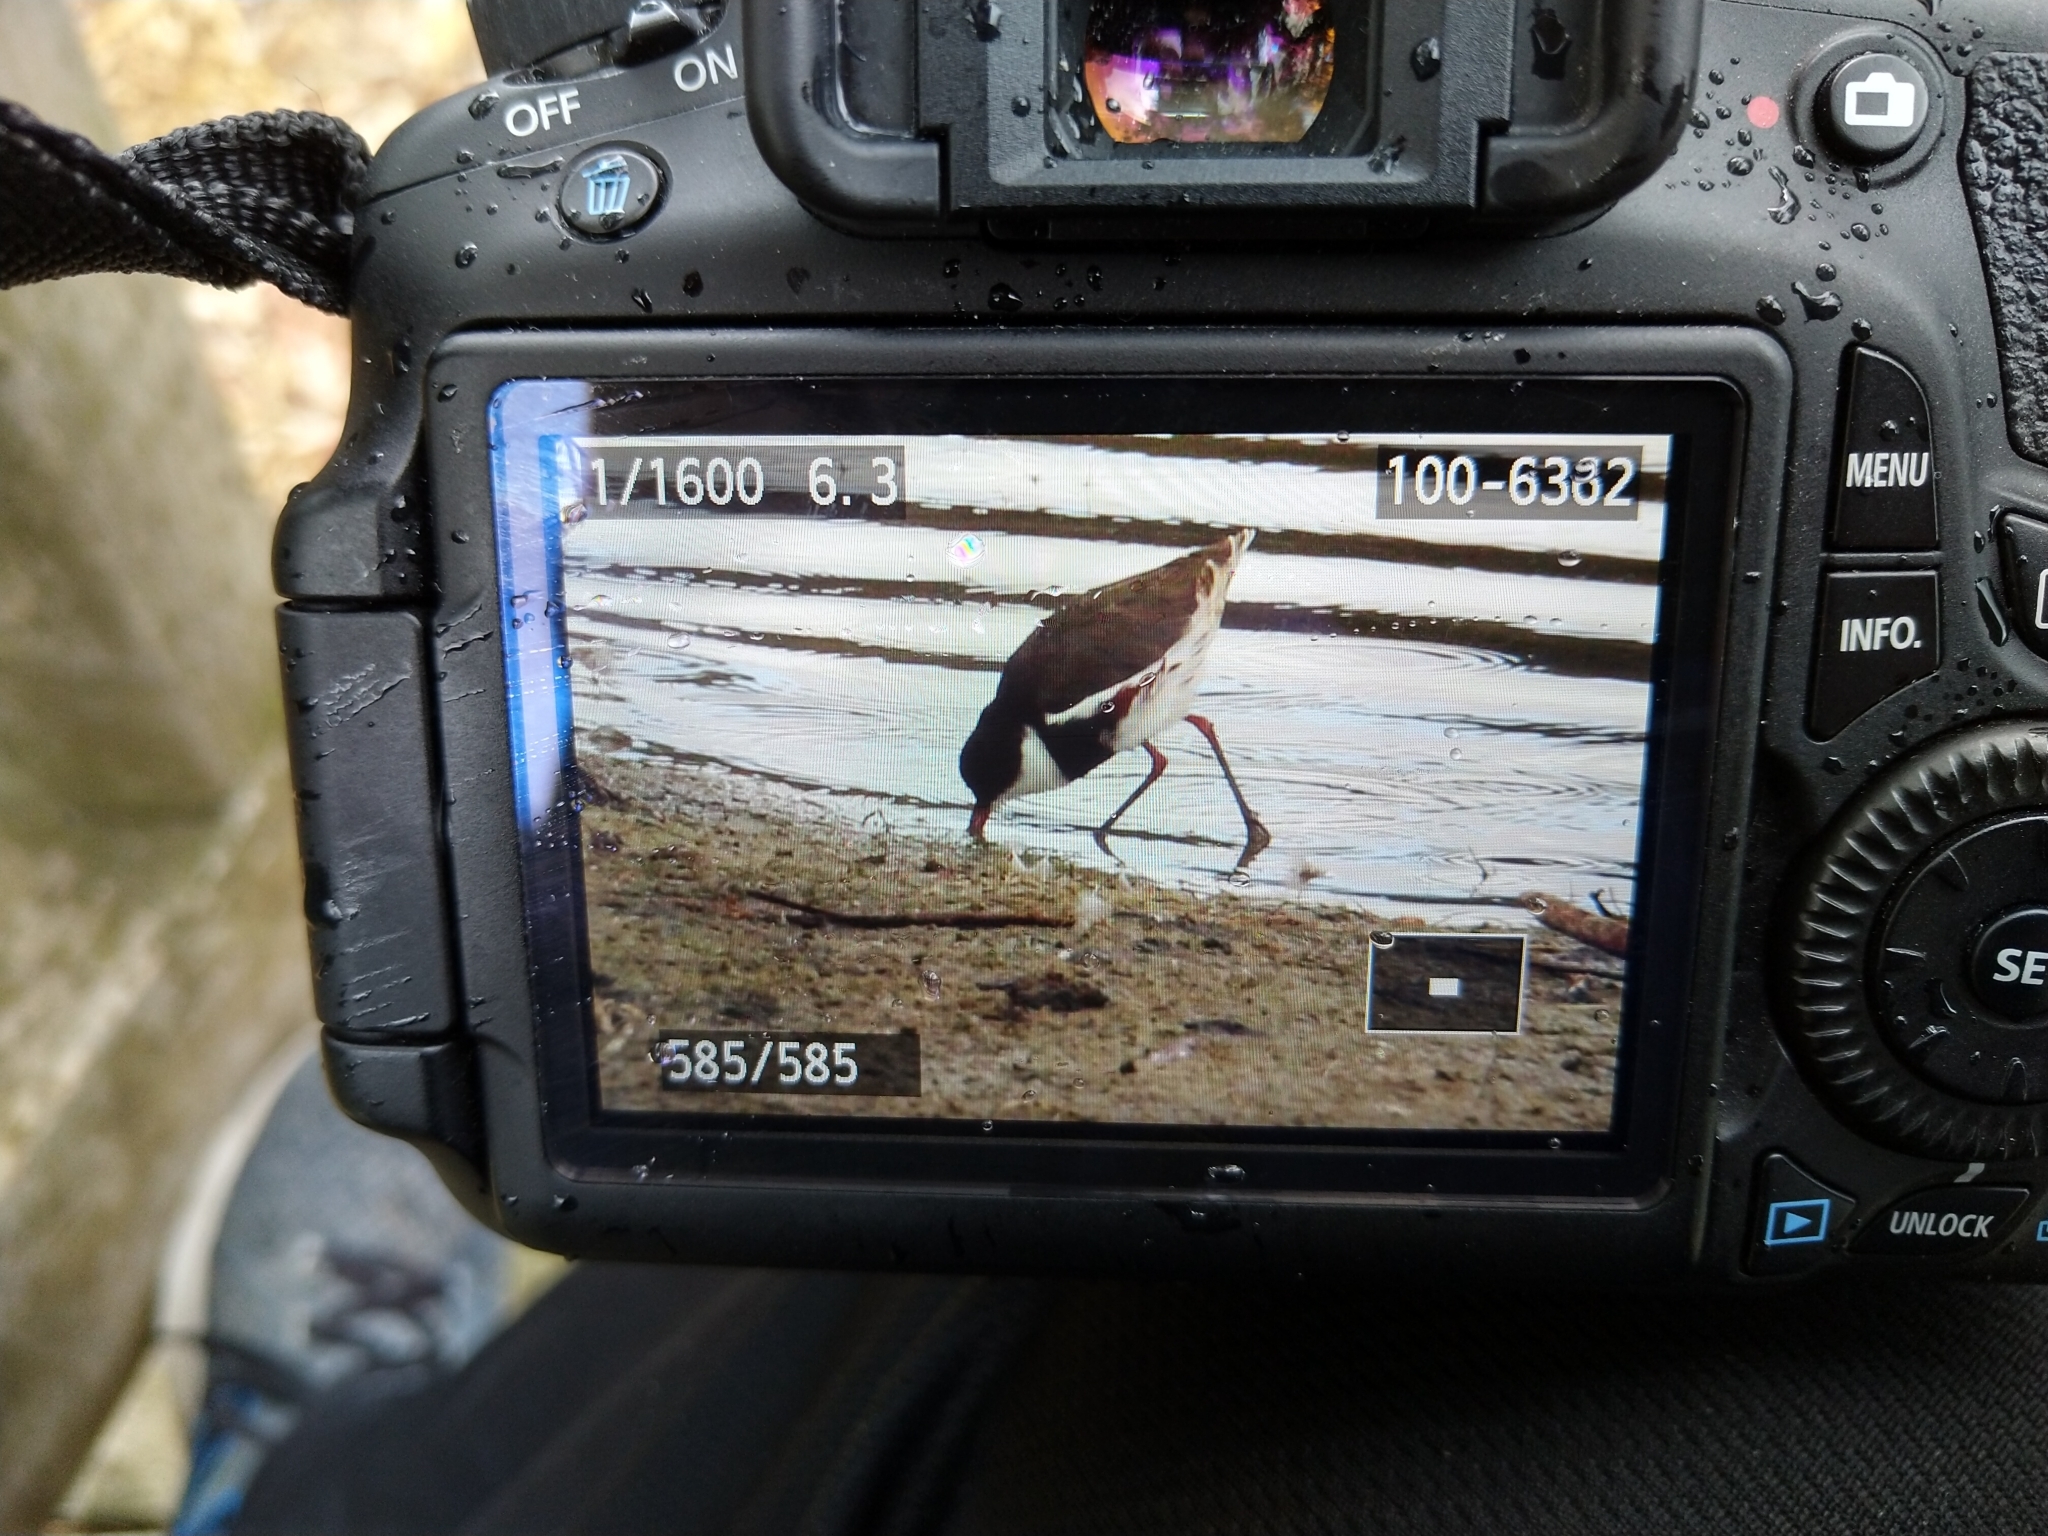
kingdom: Animalia
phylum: Chordata
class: Aves
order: Charadriiformes
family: Charadriidae
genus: Erythrogonys
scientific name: Erythrogonys cinctus
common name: Red-kneed dotterel
